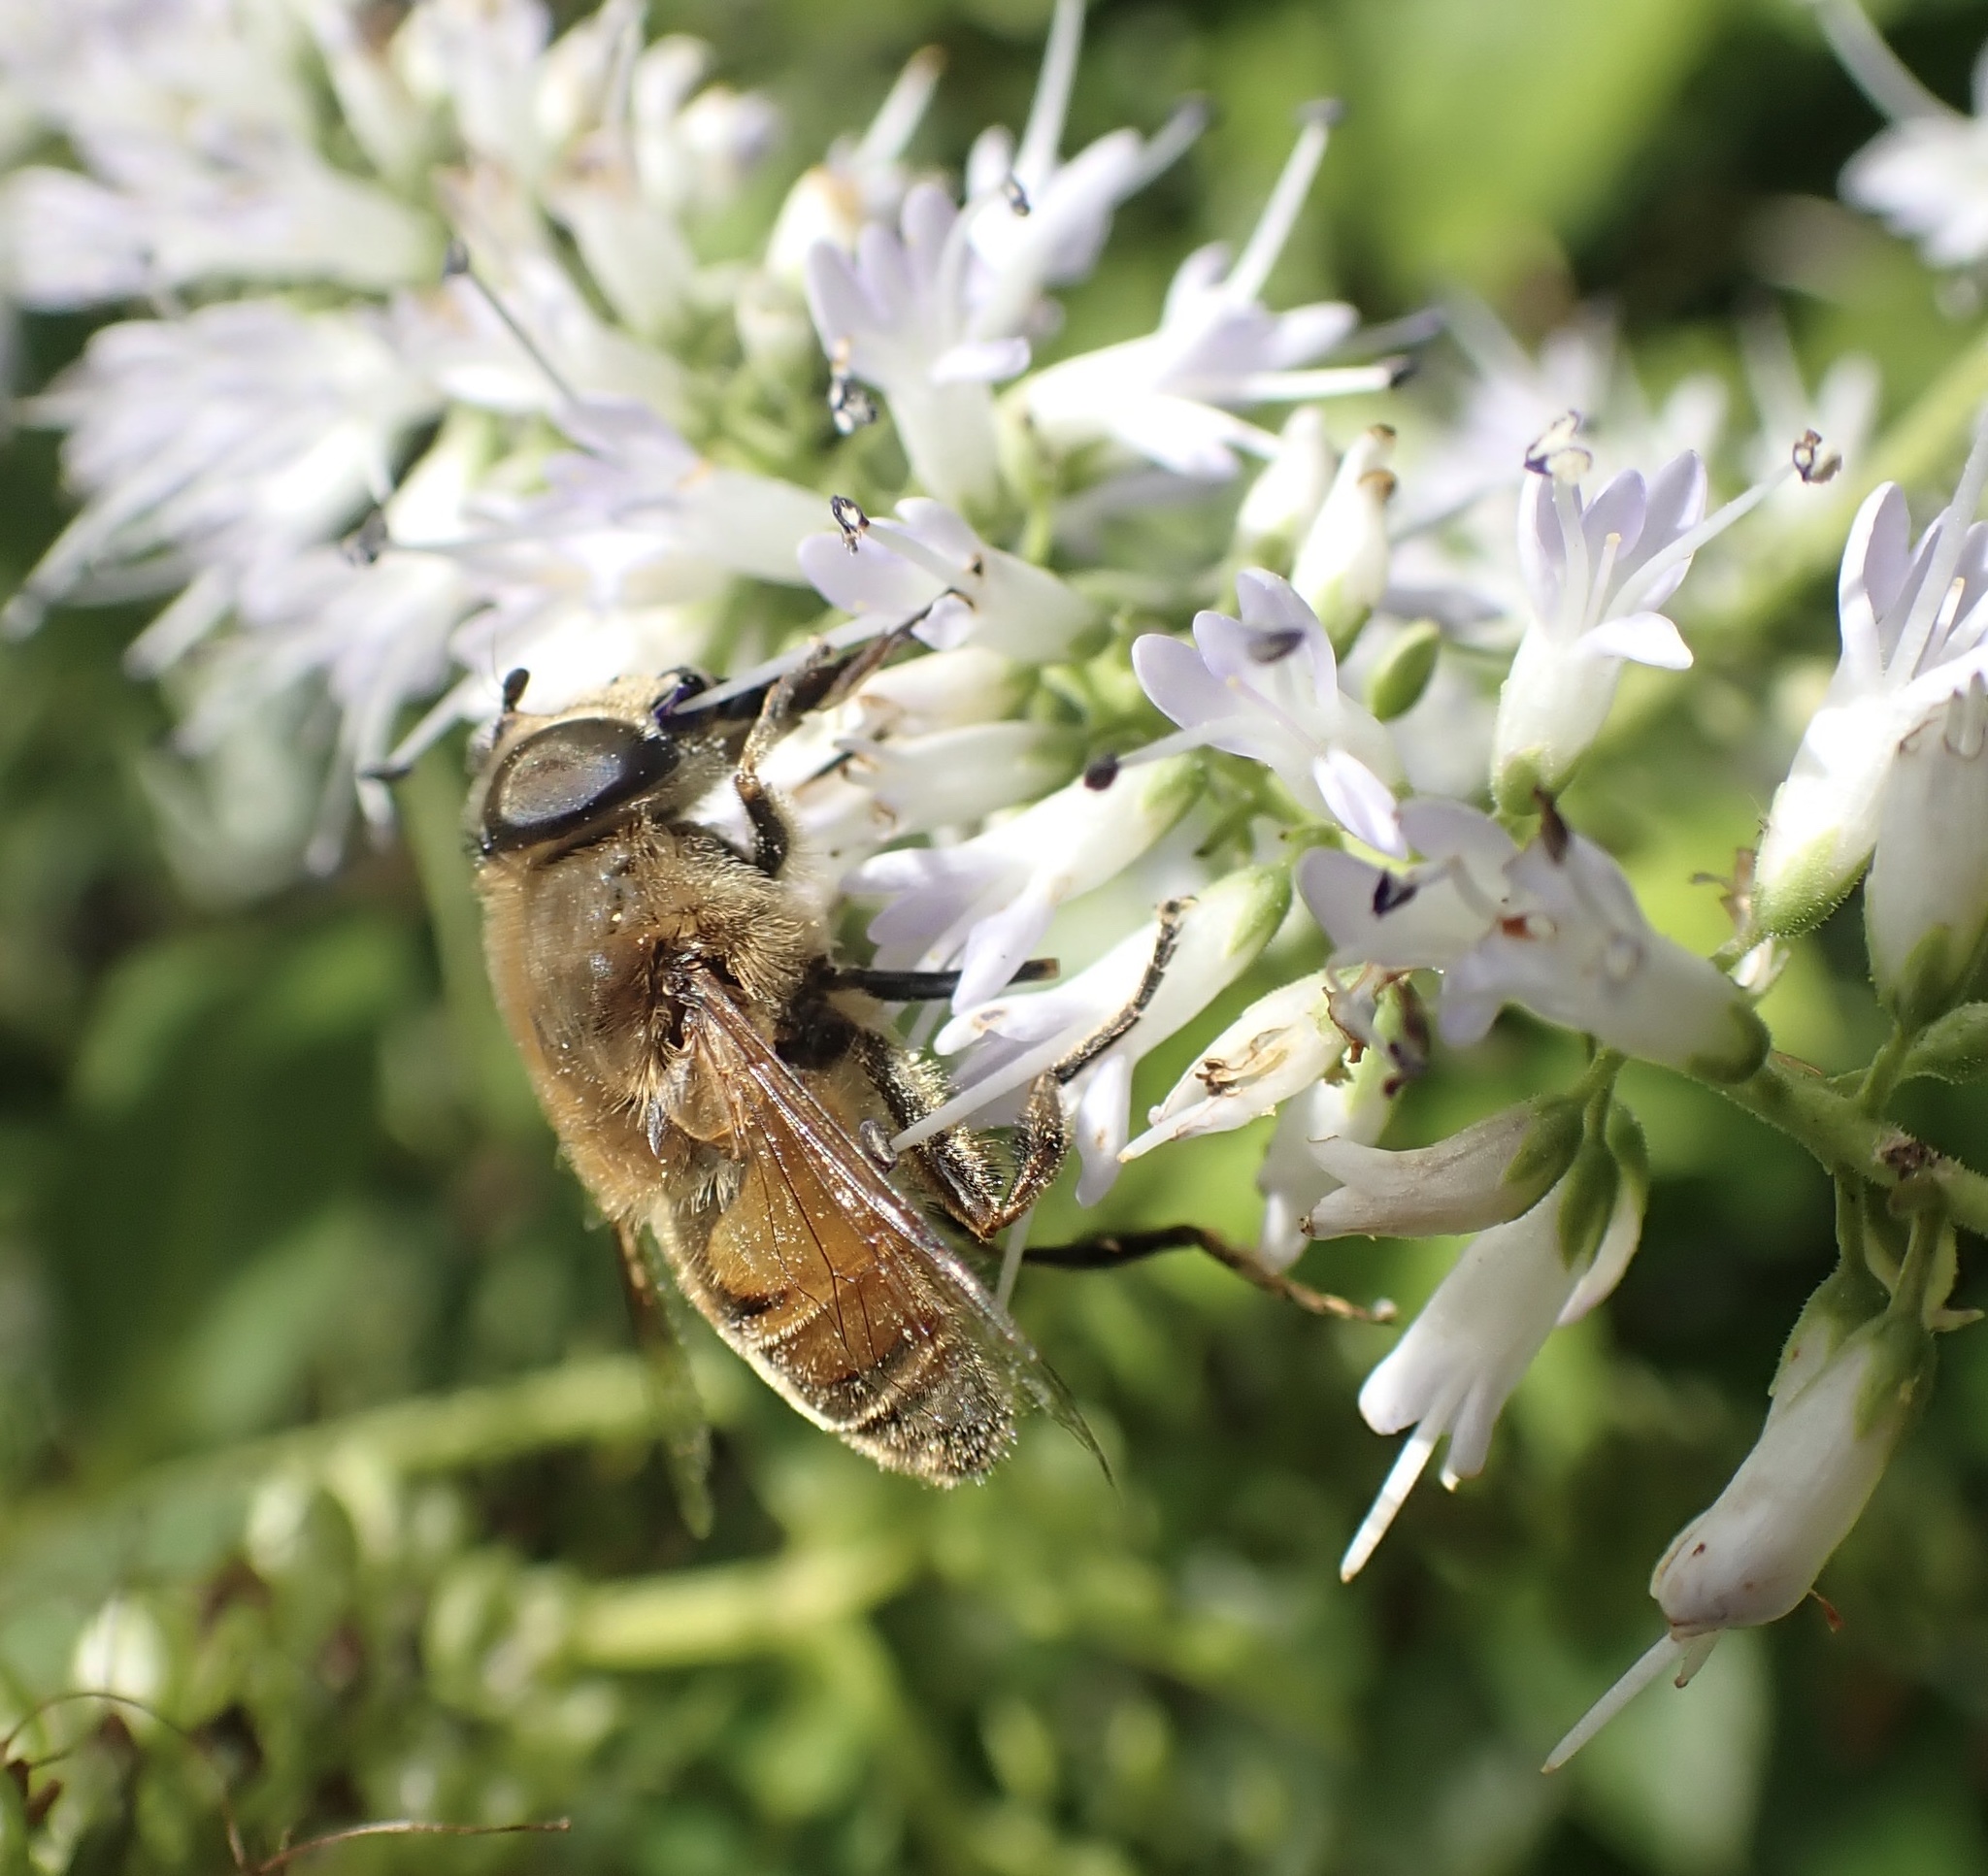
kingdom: Animalia
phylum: Arthropoda
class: Insecta
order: Diptera
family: Syrphidae
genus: Eristalis
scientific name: Eristalis tenax
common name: Drone fly
